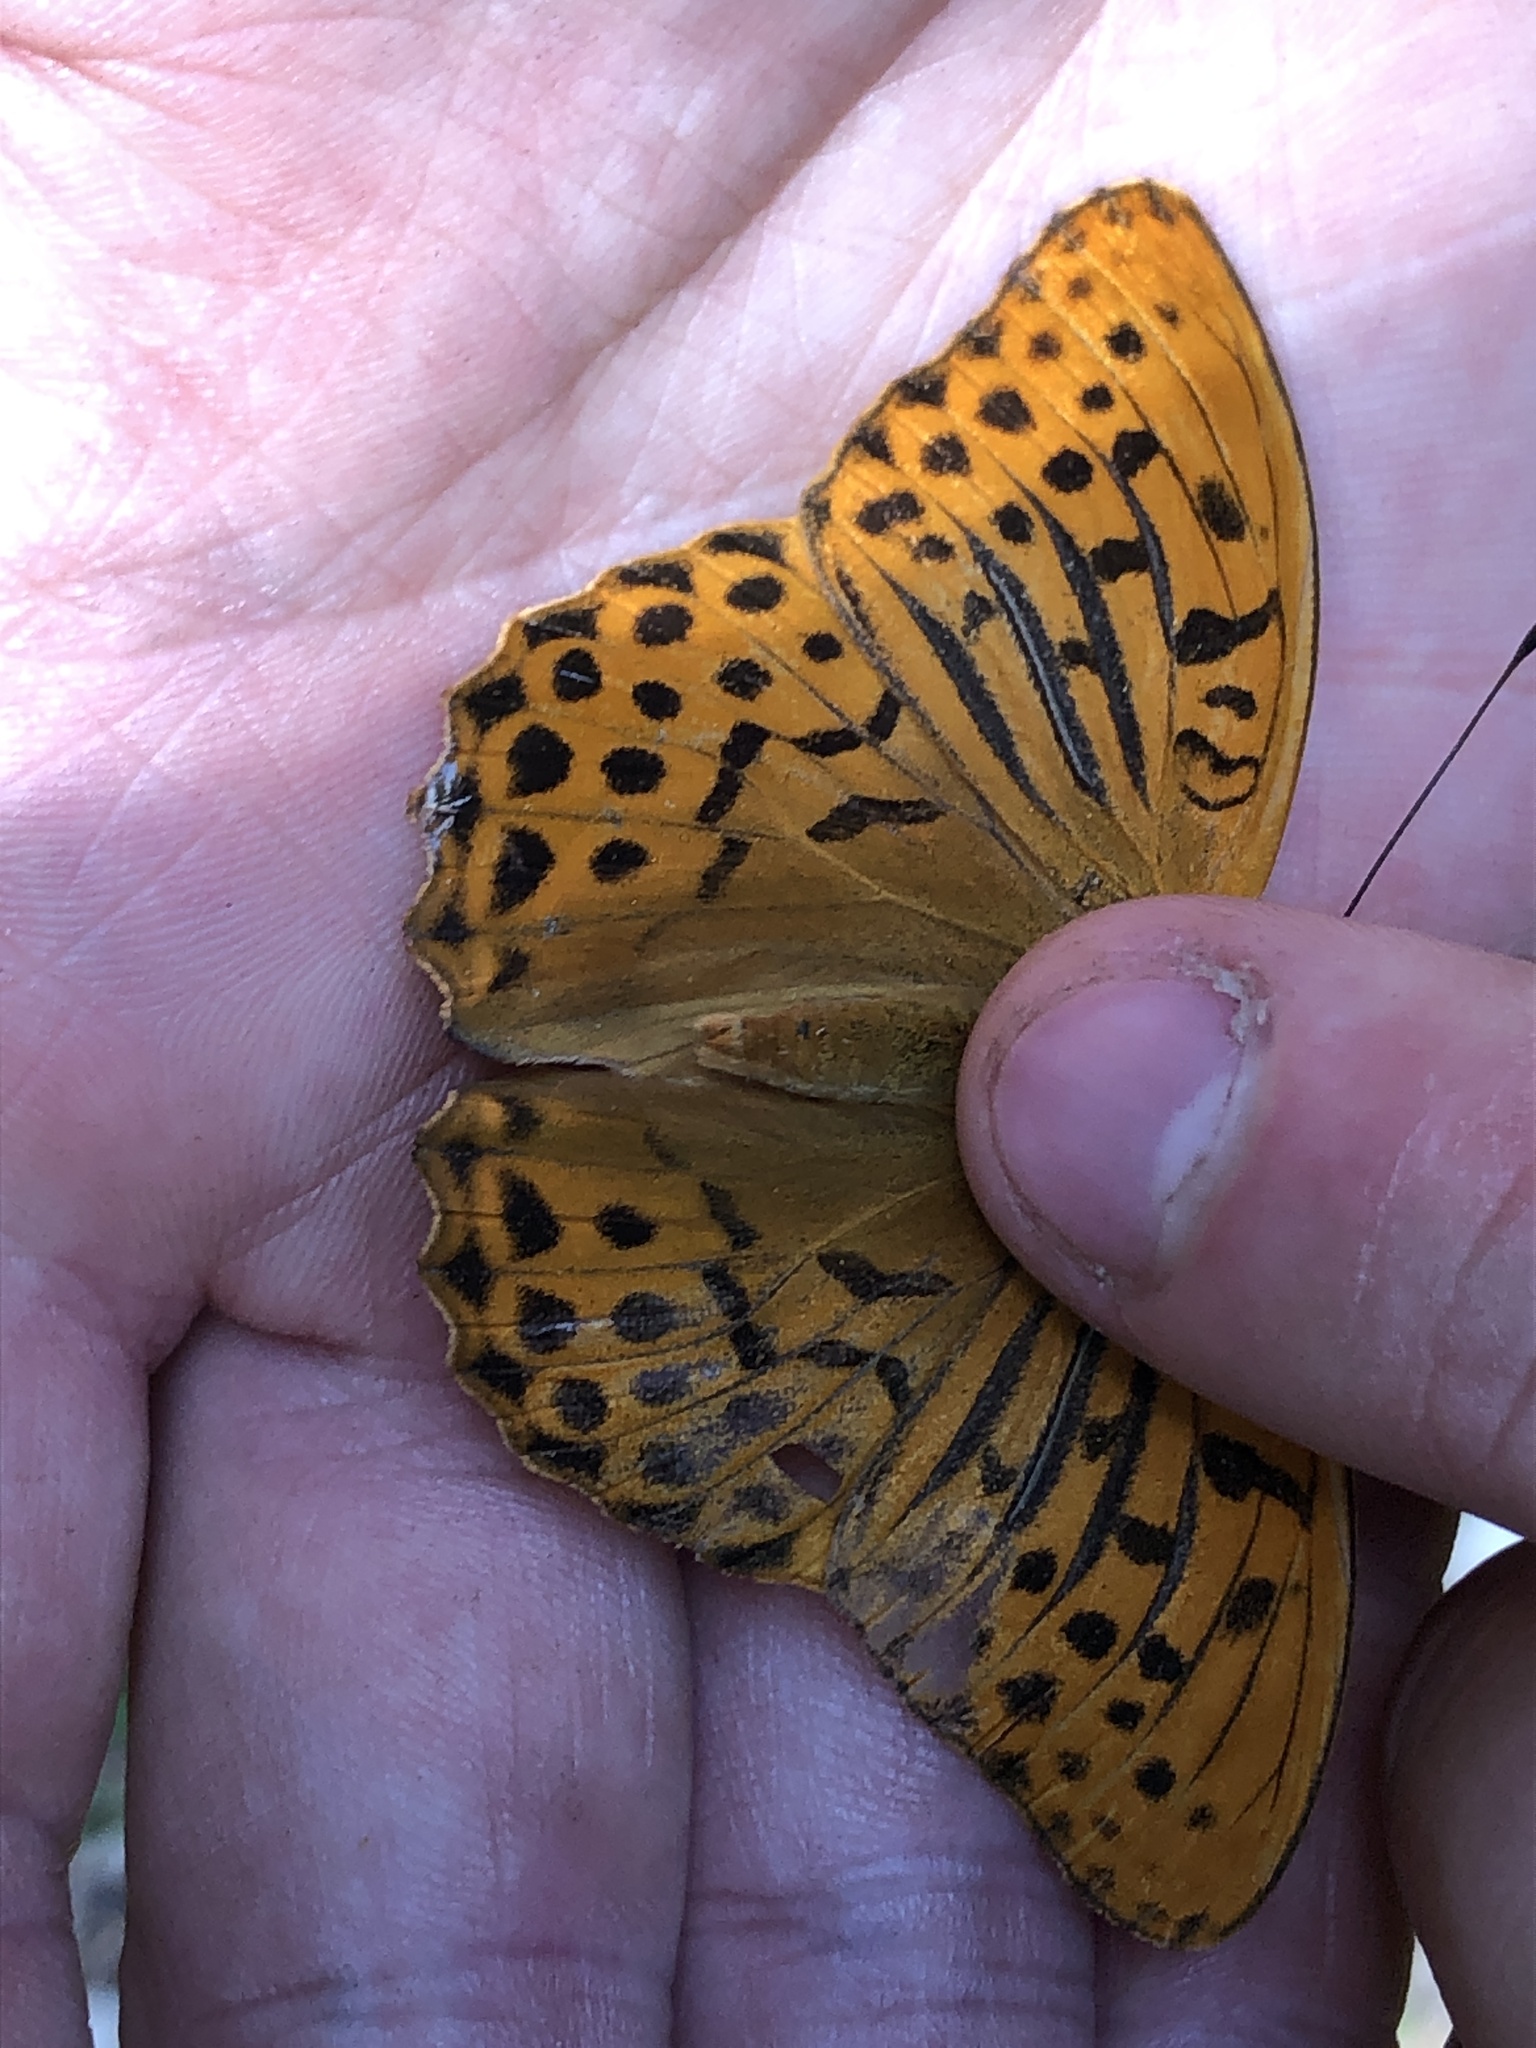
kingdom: Animalia
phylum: Arthropoda
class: Insecta
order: Lepidoptera
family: Nymphalidae
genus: Argynnis
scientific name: Argynnis paphia
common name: Silver-washed fritillary
